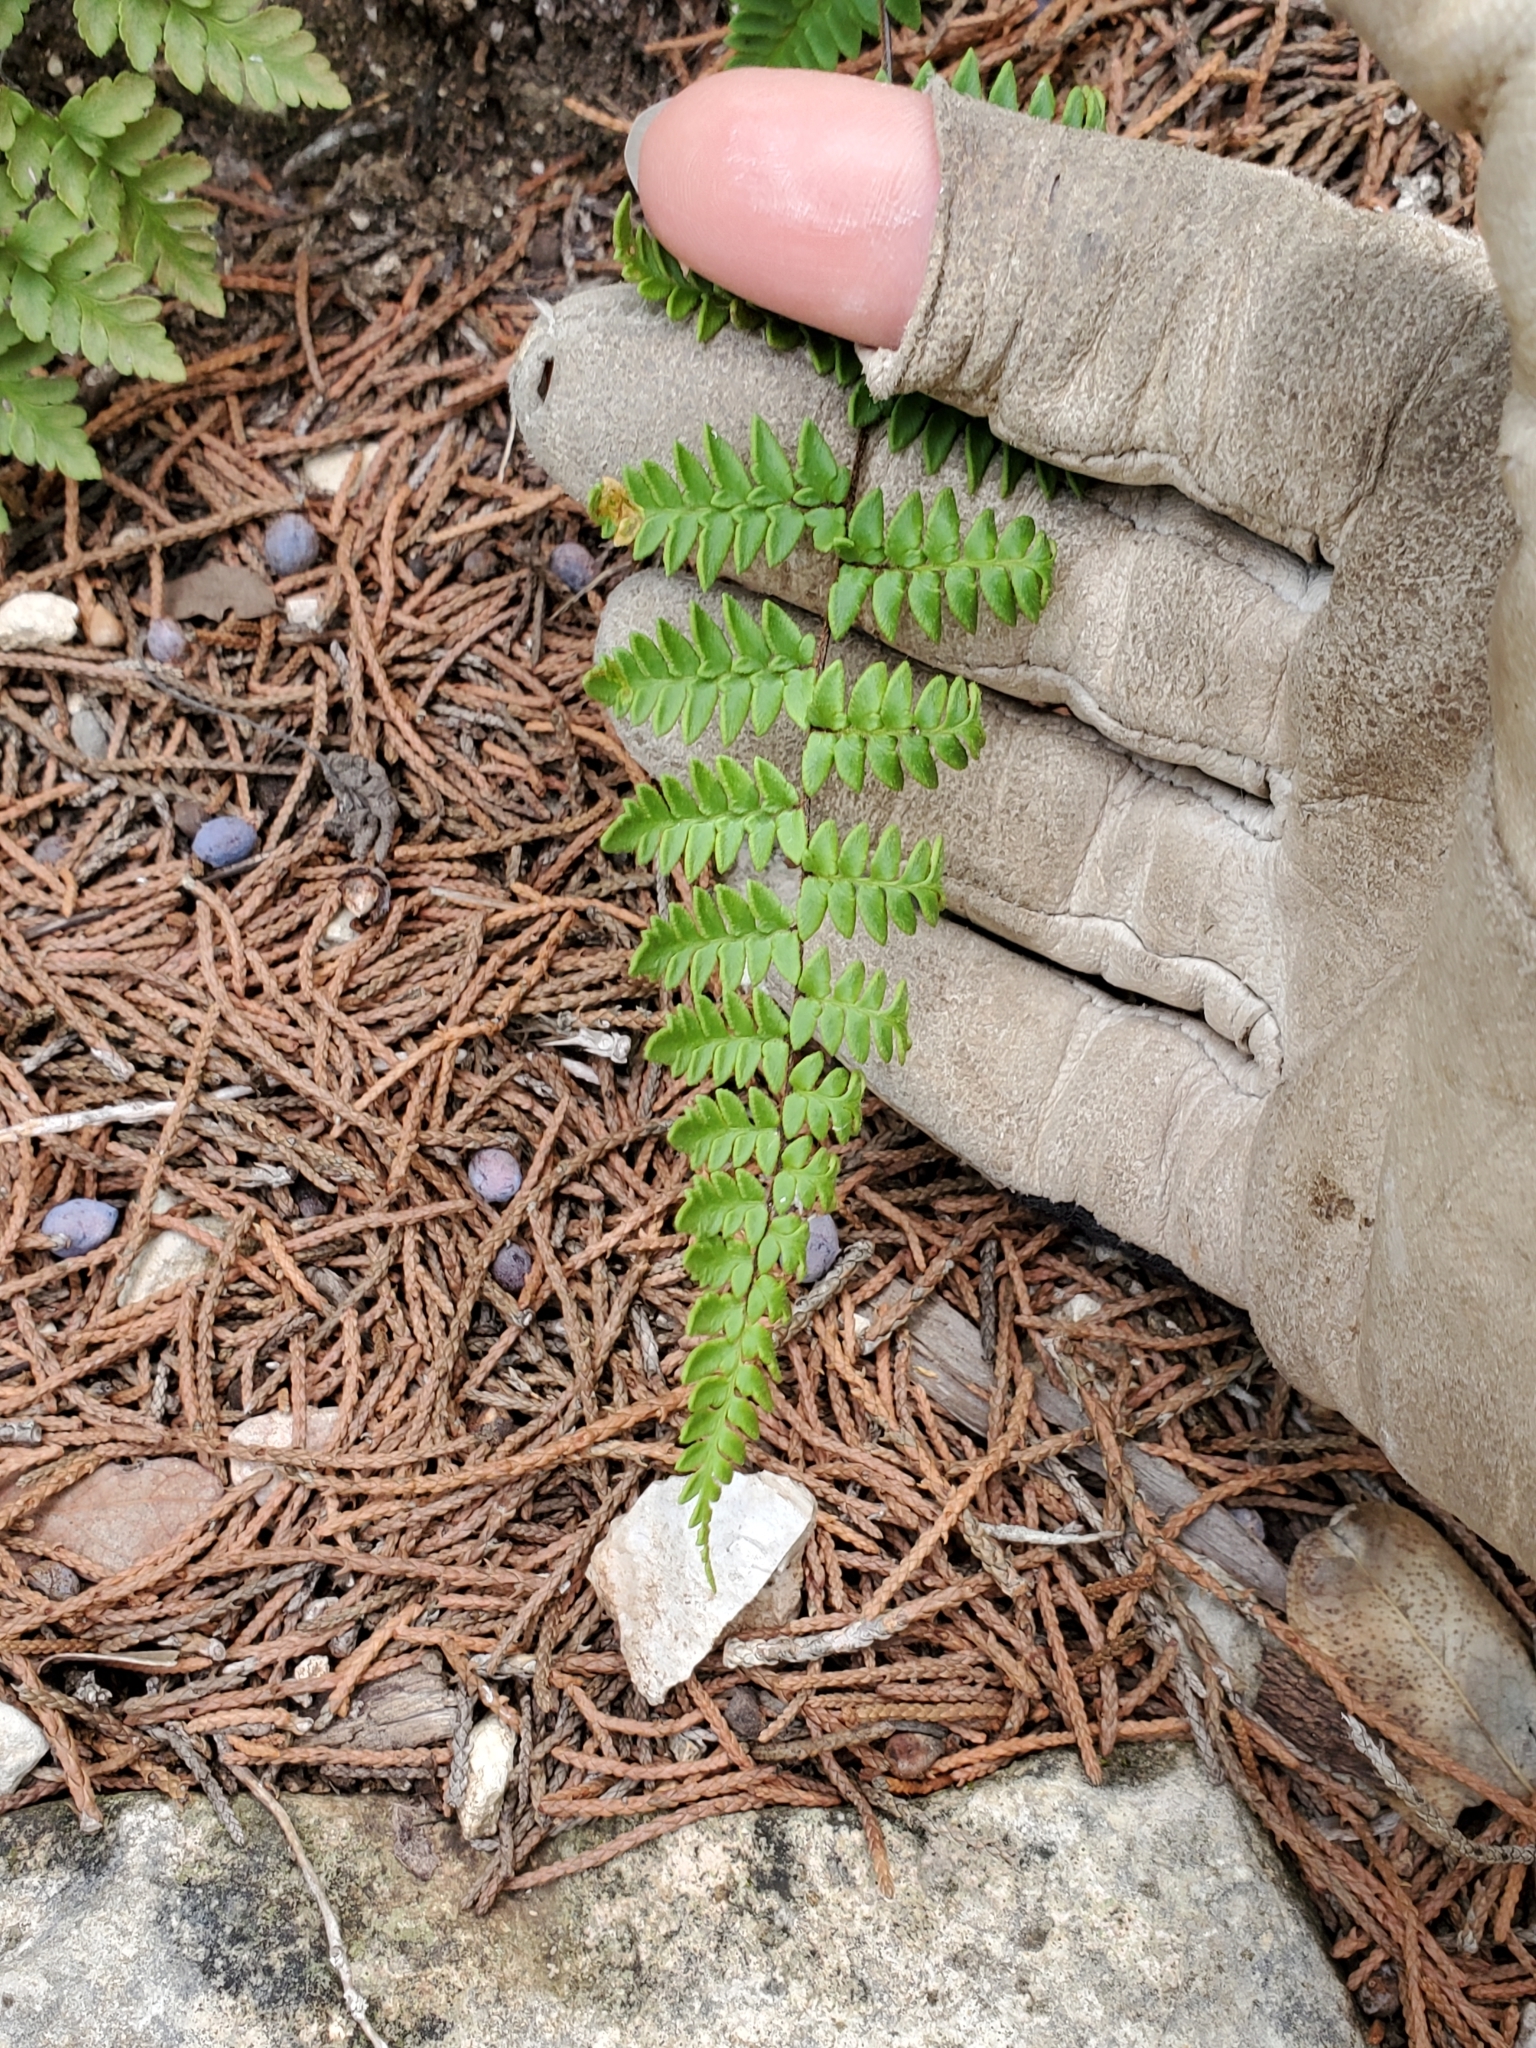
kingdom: Plantae
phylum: Tracheophyta
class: Polypodiopsida
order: Polypodiales
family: Pteridaceae
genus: Myriopteris
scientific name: Myriopteris alabamensis
